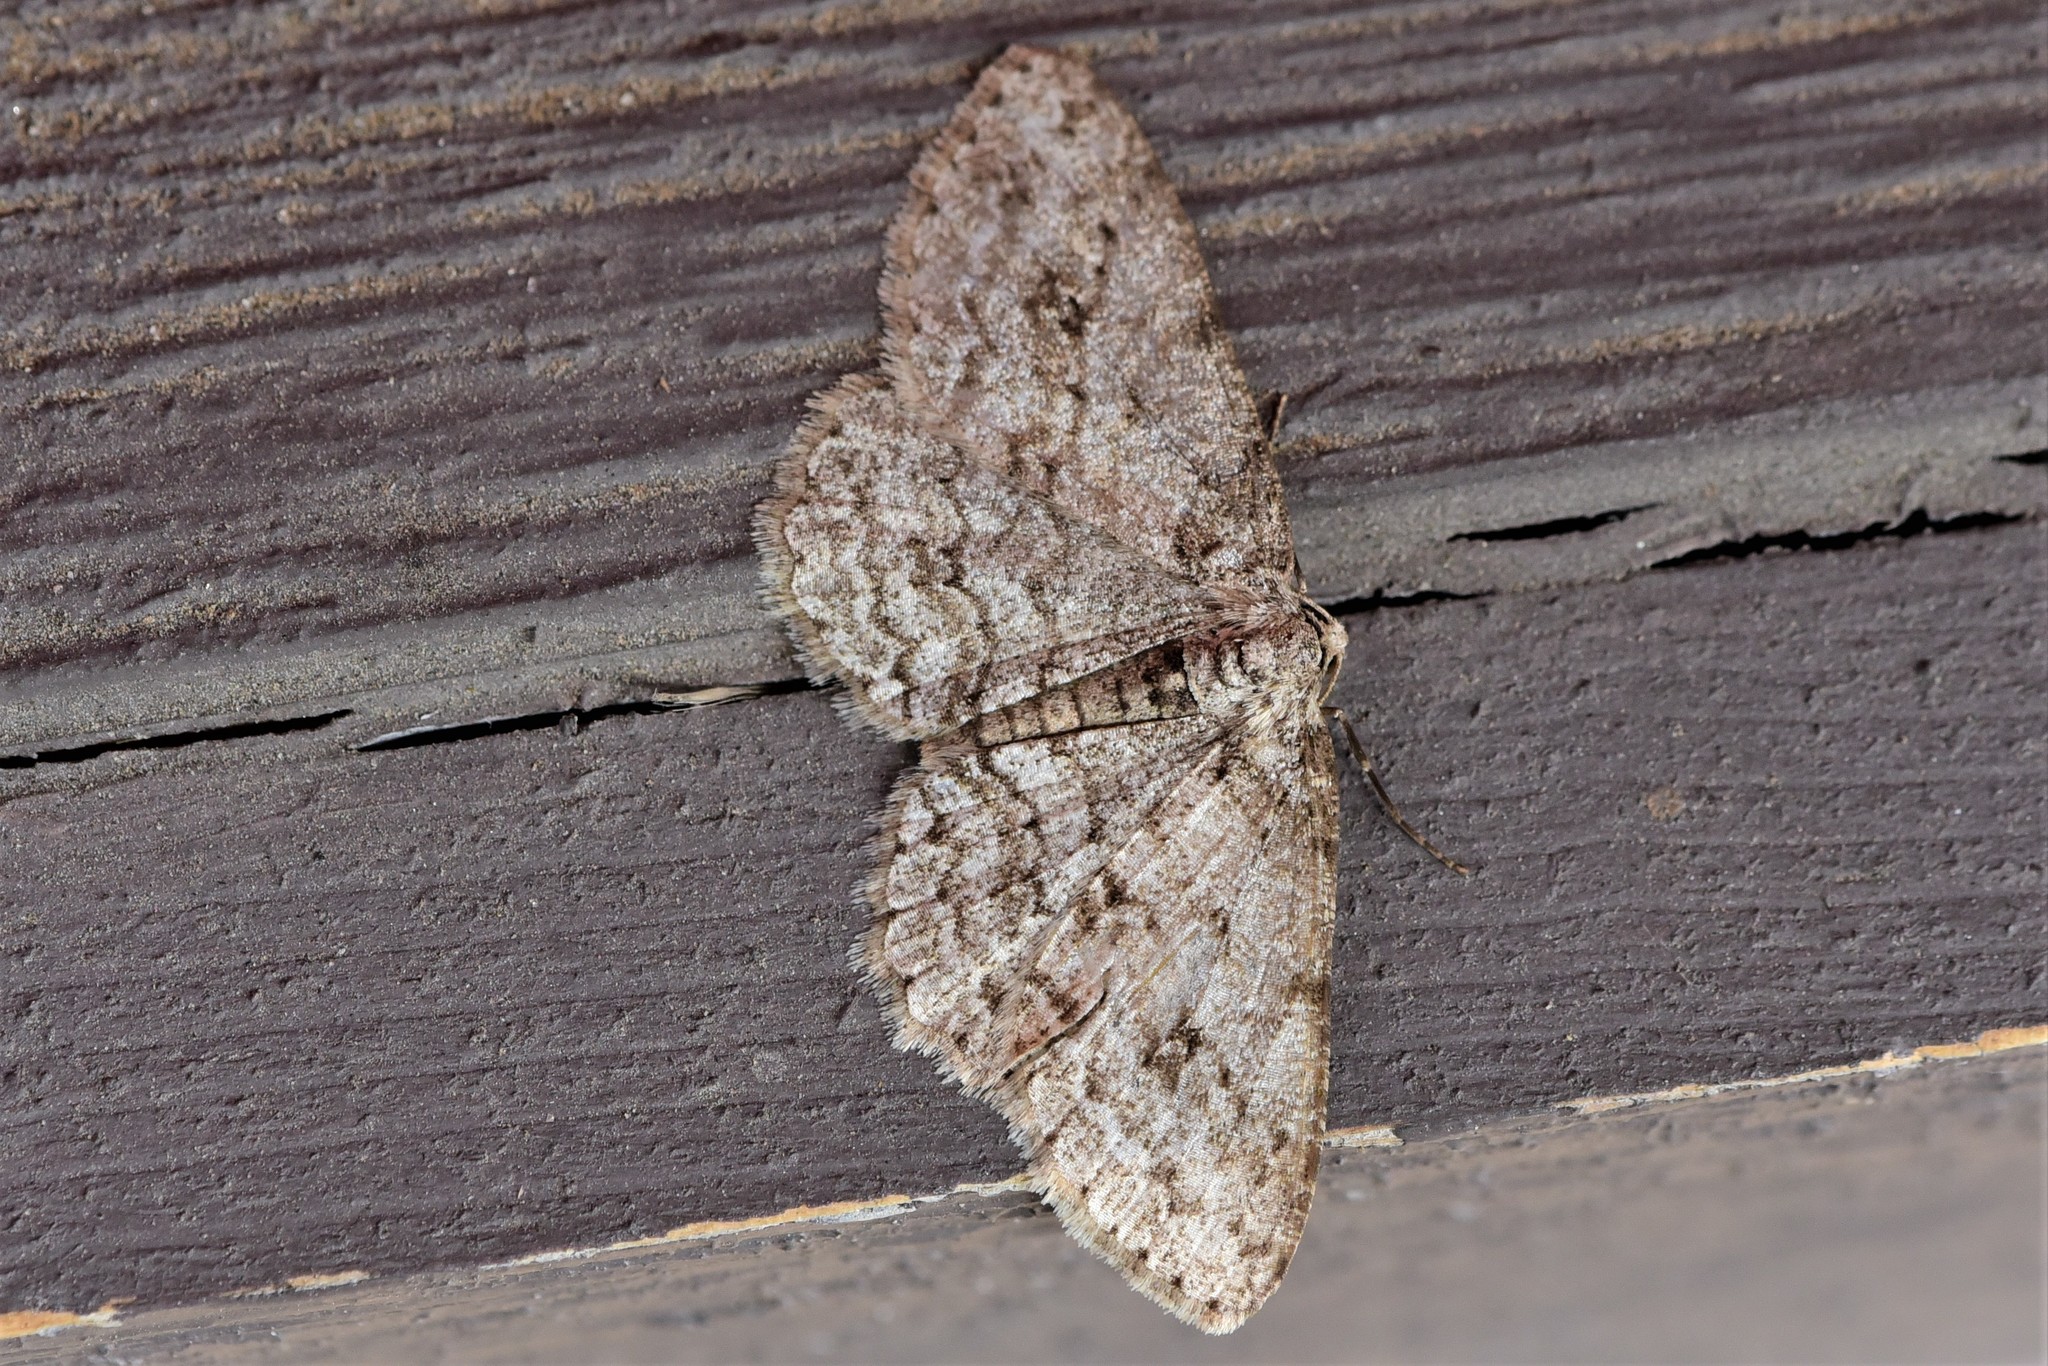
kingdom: Animalia
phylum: Arthropoda
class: Insecta
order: Lepidoptera
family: Geometridae
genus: Ectropis
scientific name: Ectropis crepuscularia
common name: Engrailed
